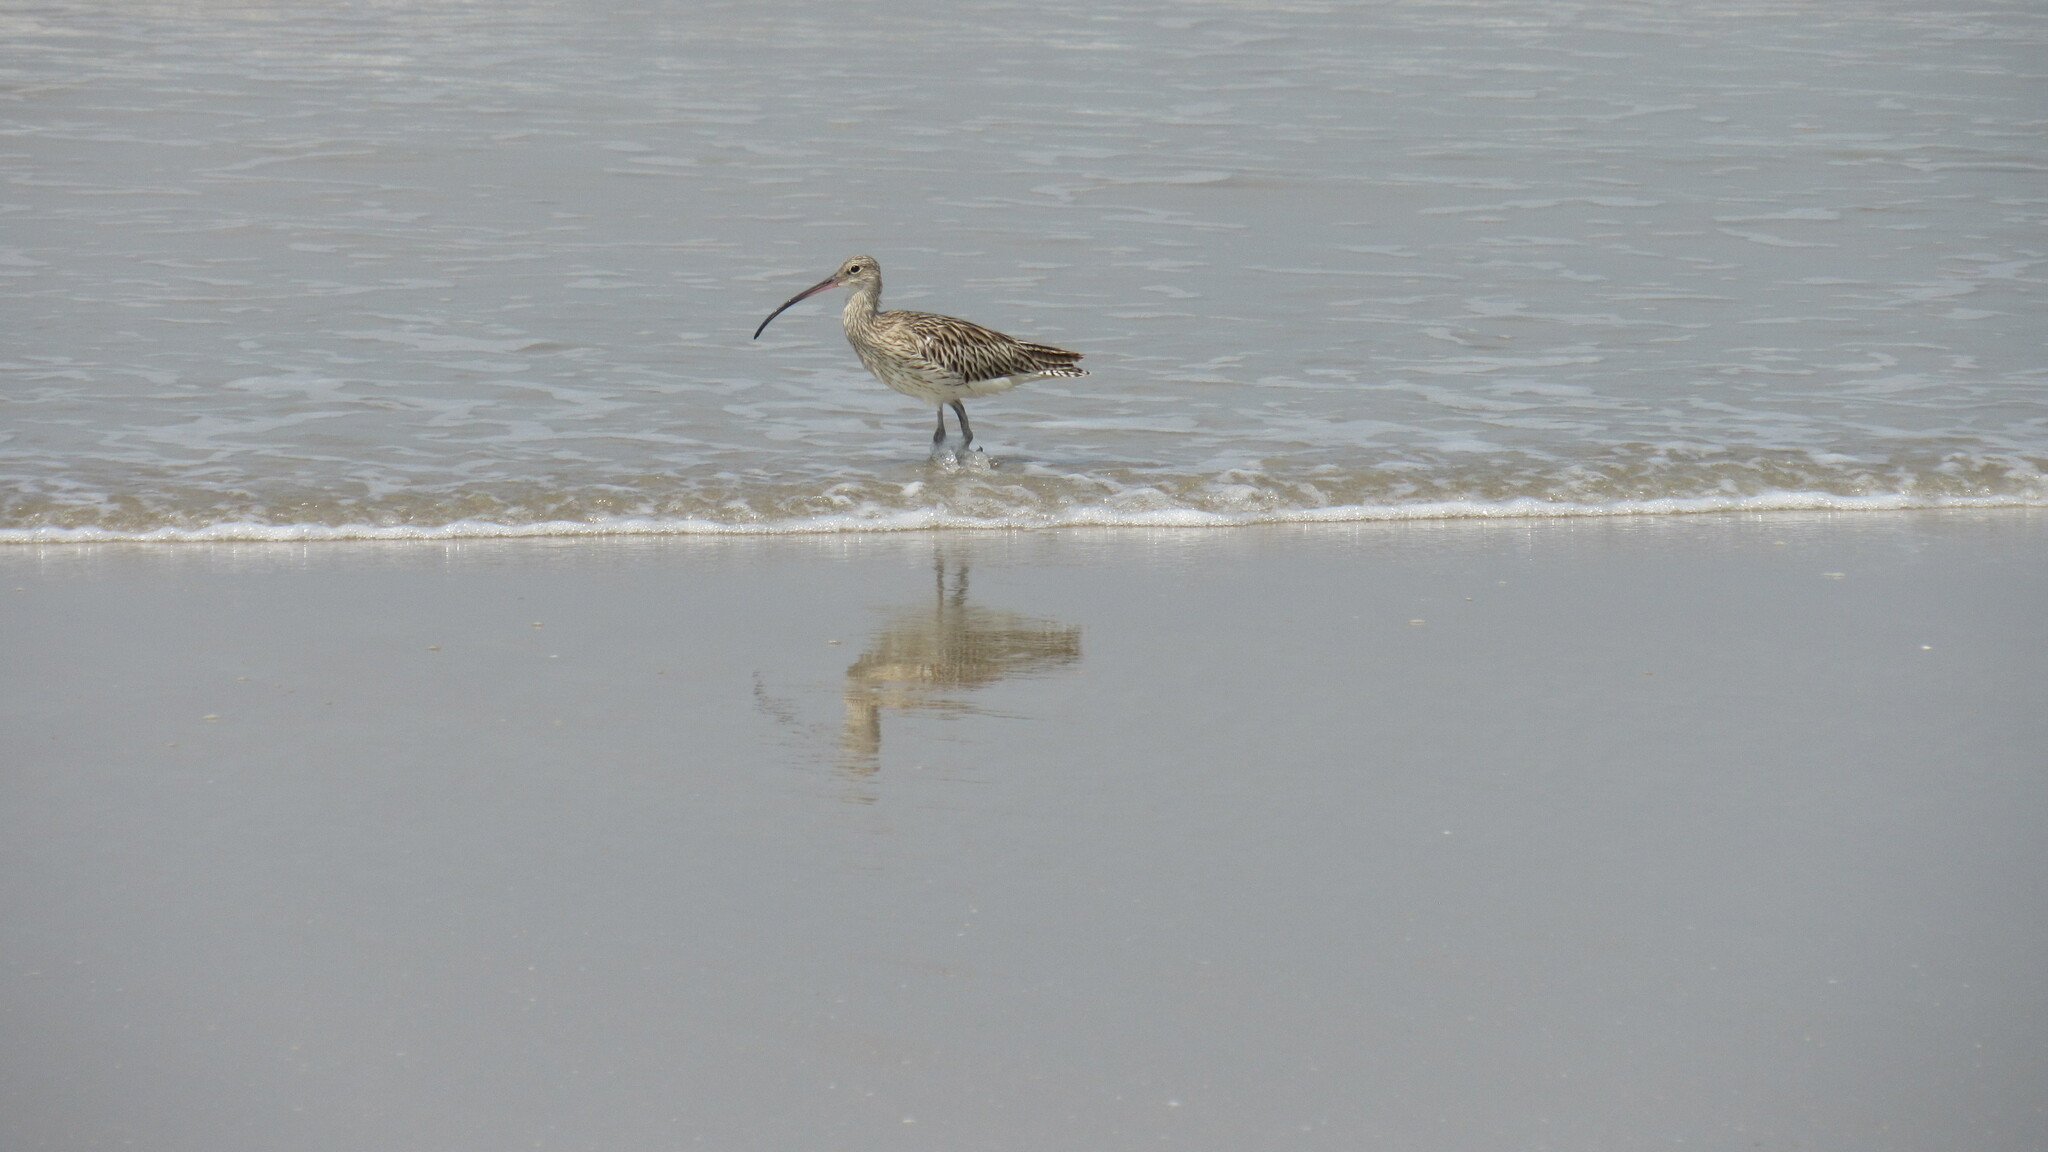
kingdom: Animalia
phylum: Chordata
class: Aves
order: Charadriiformes
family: Scolopacidae
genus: Numenius
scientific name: Numenius arquata
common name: Eurasian curlew
